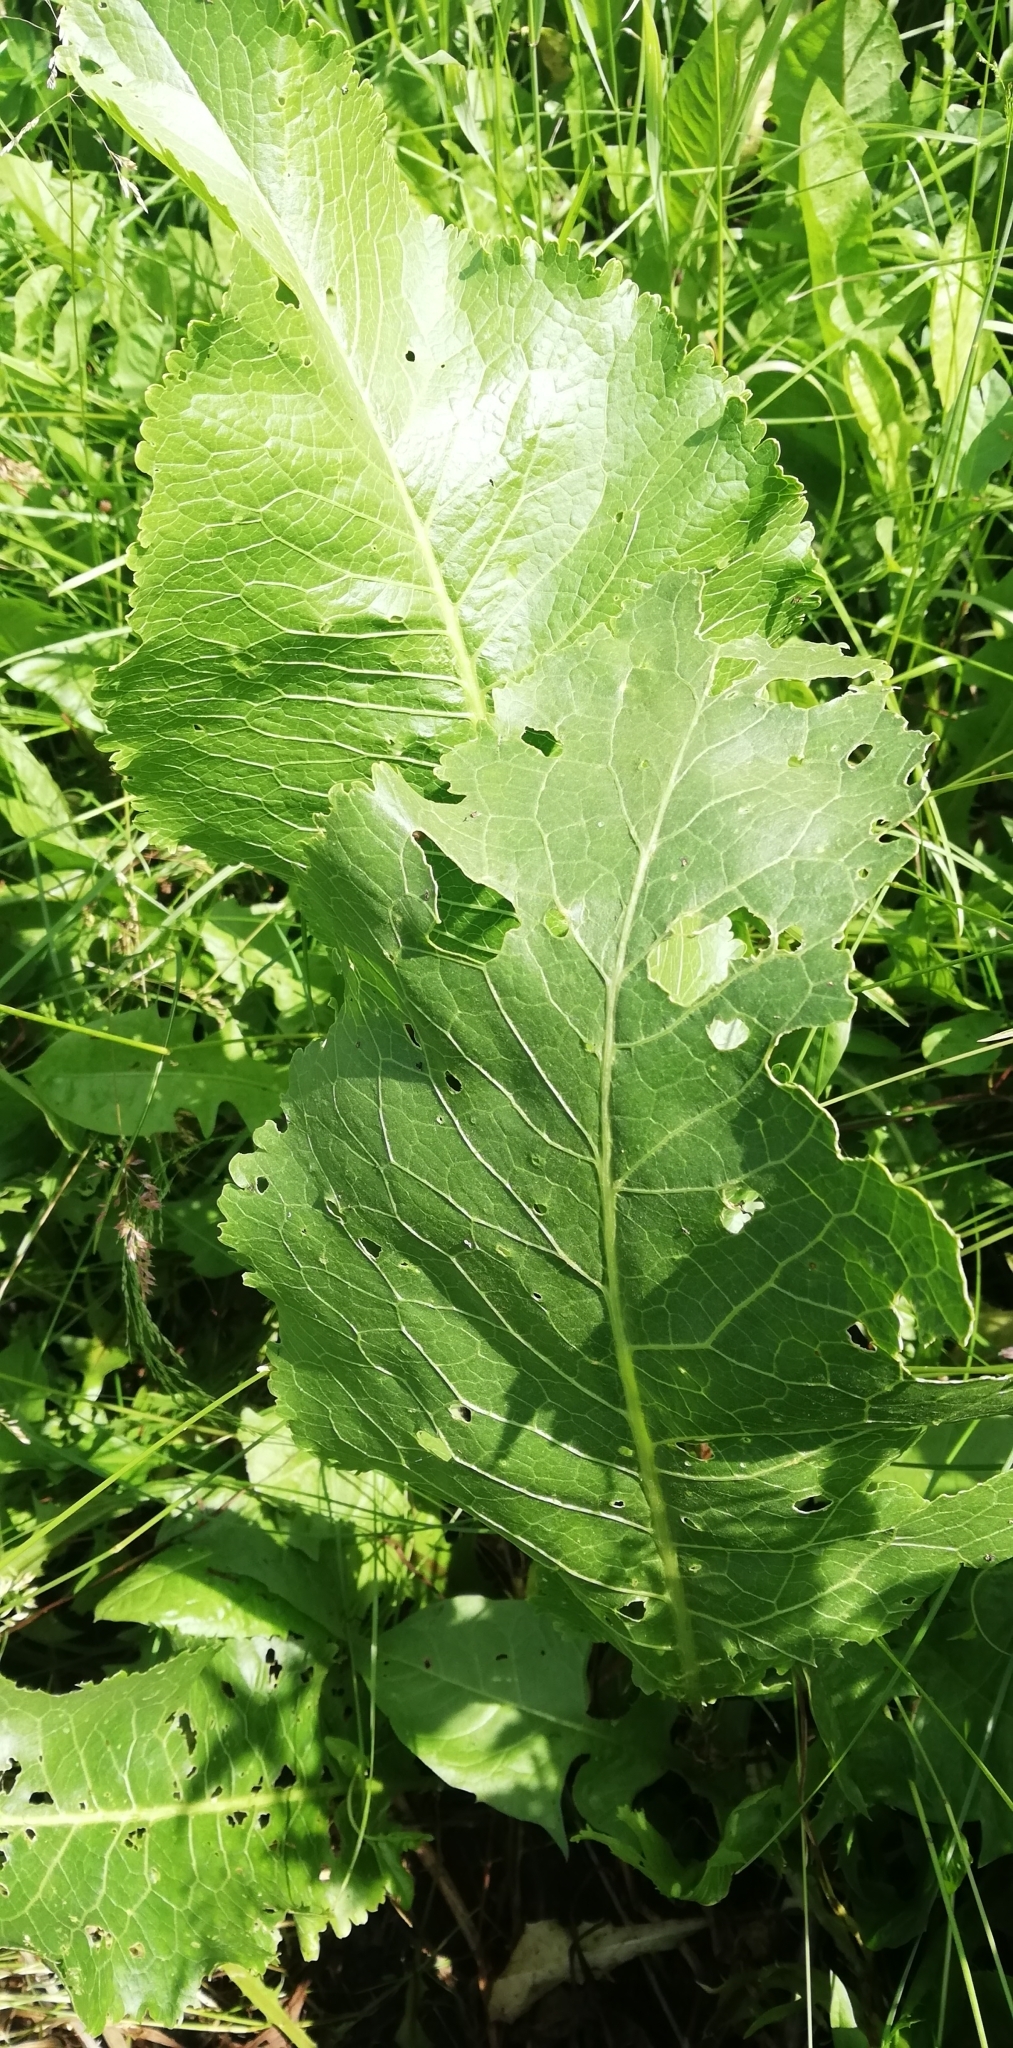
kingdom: Plantae
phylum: Tracheophyta
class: Magnoliopsida
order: Brassicales
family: Brassicaceae
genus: Armoracia
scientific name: Armoracia rusticana
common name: Horseradish
